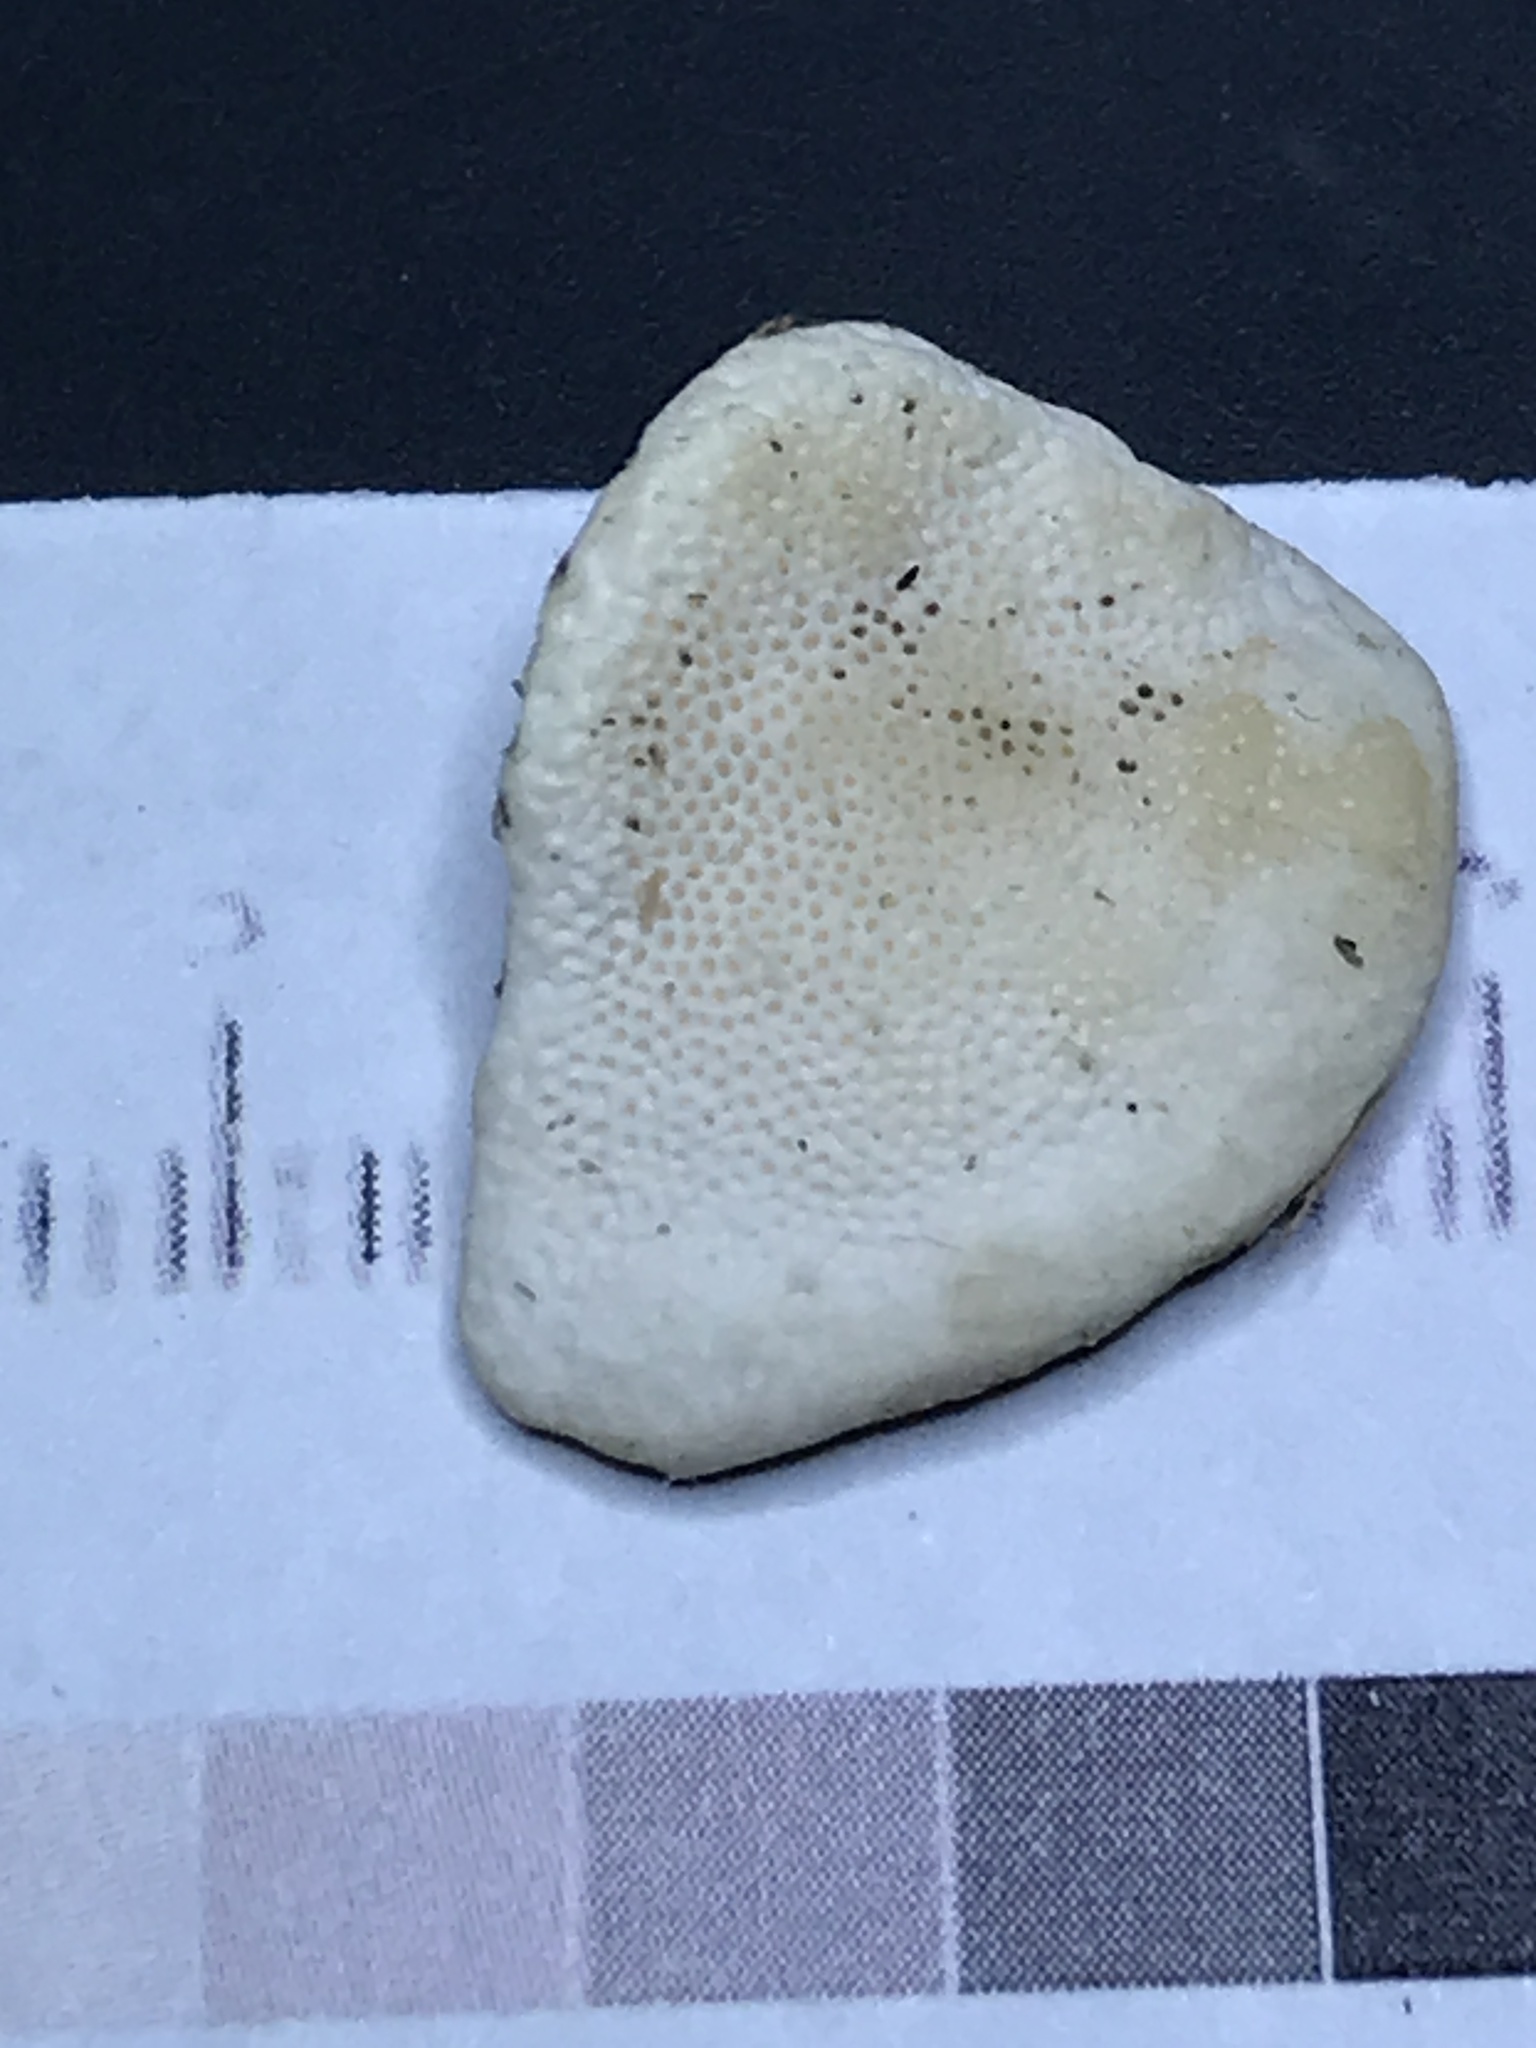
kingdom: Fungi
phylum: Basidiomycota
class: Agaricomycetes
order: Polyporales
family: Polyporaceae
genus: Trametes
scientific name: Trametes lactinea
